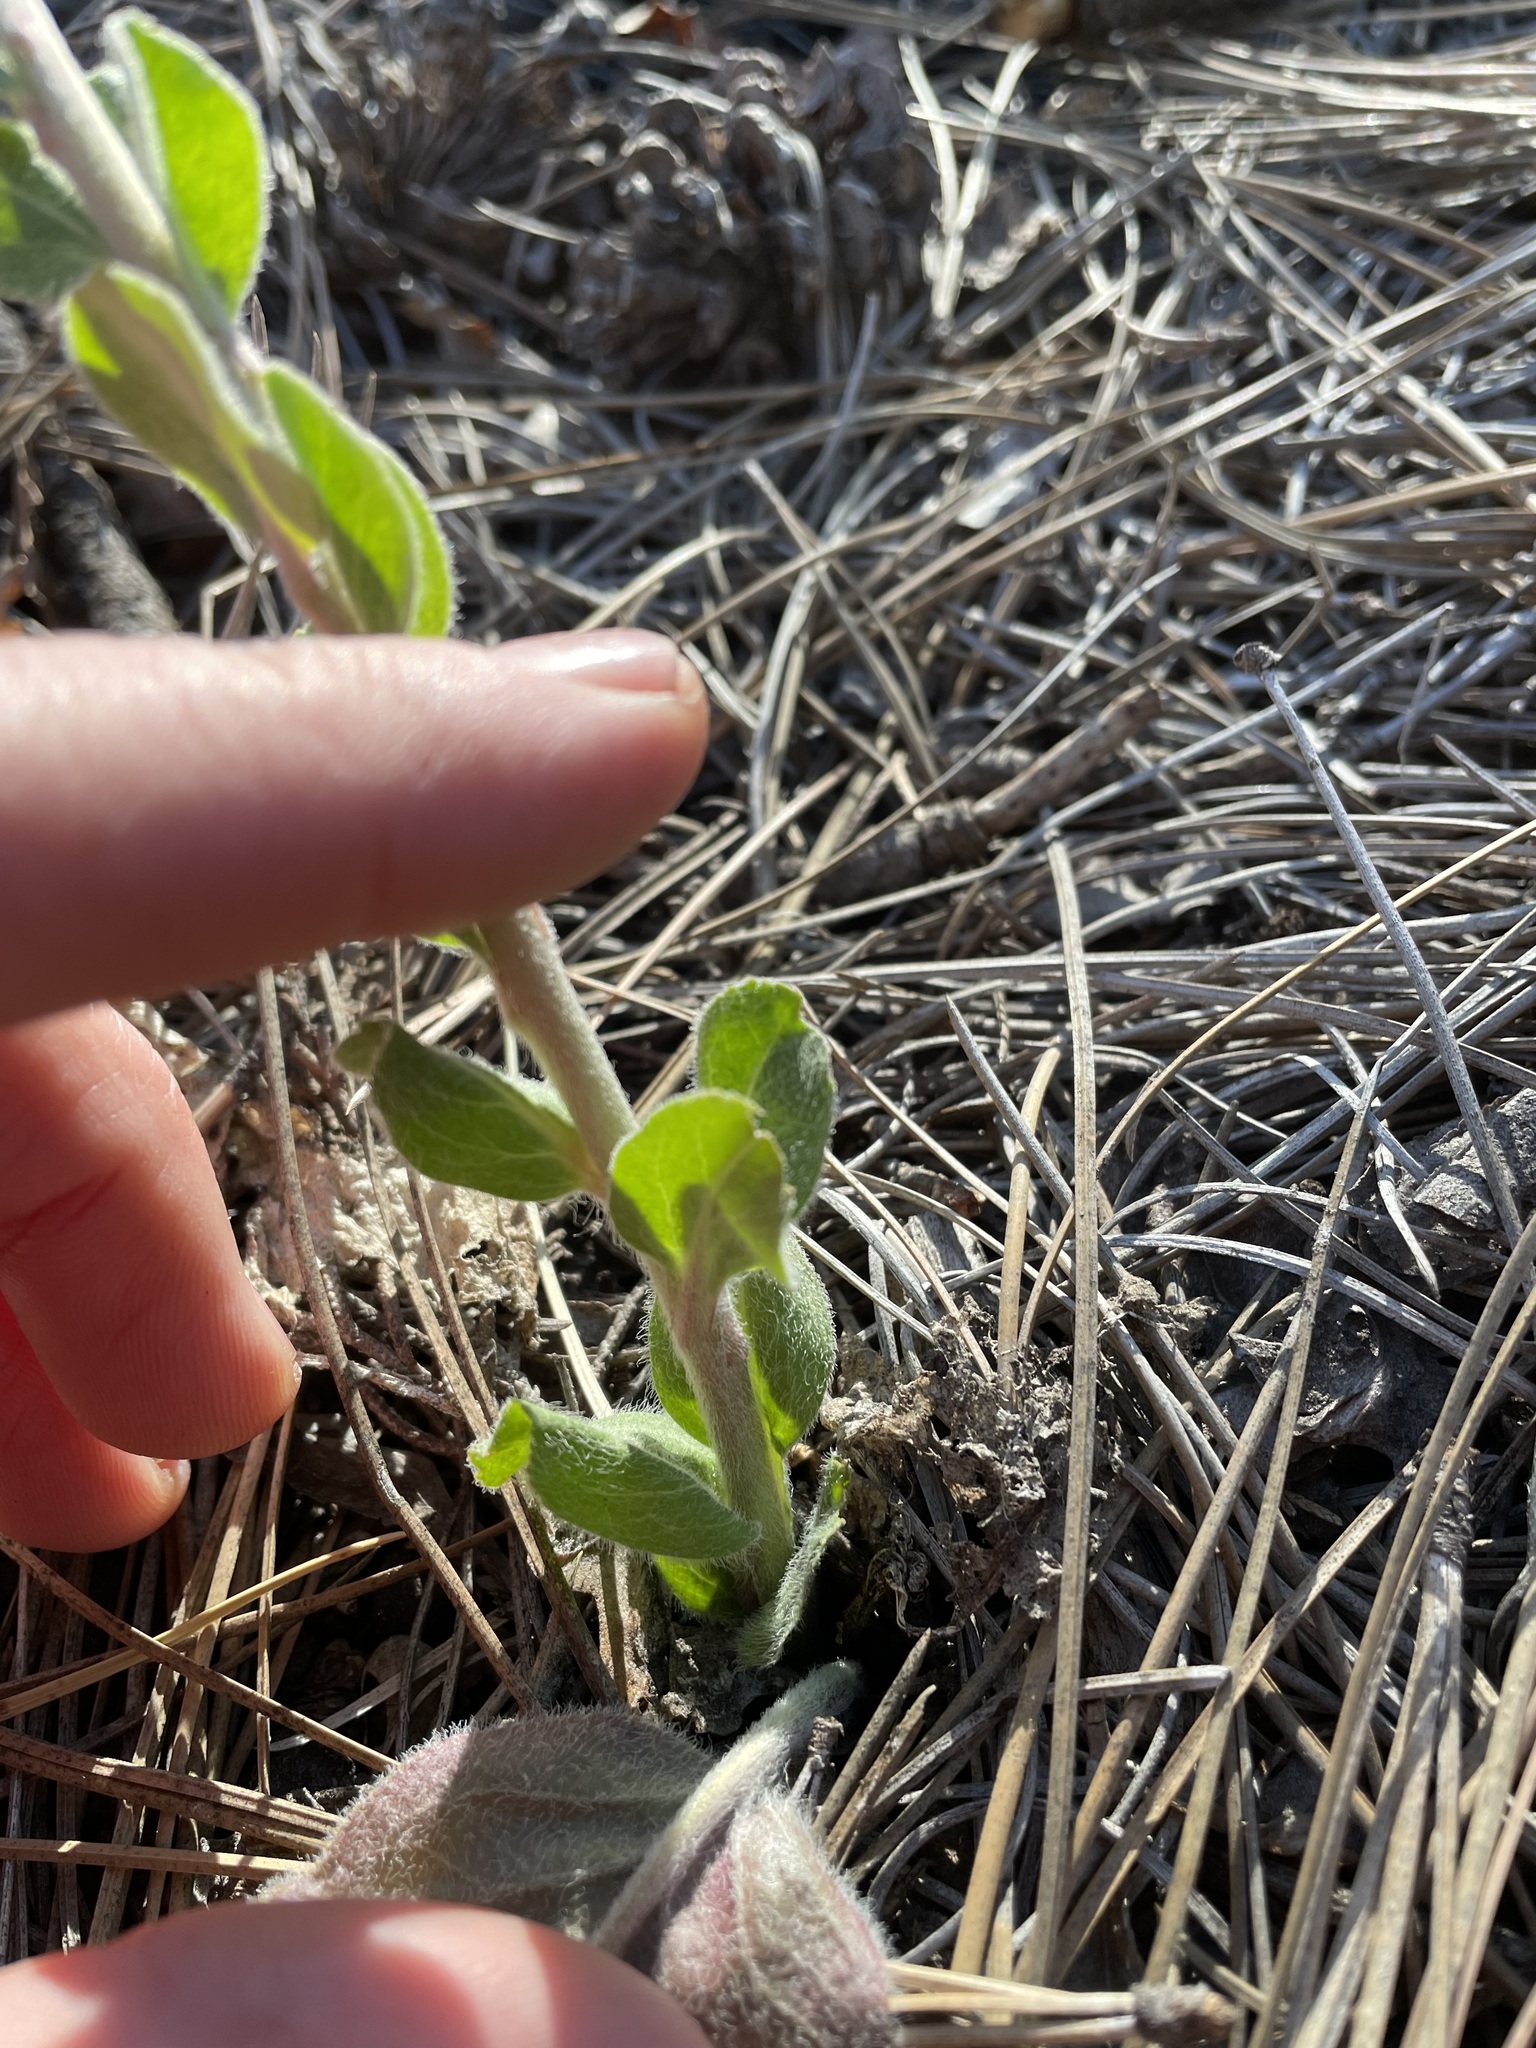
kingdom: Plantae
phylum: Tracheophyta
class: Magnoliopsida
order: Lamiales
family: Plantaginaceae
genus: Veronica
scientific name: Veronica plantaginea
